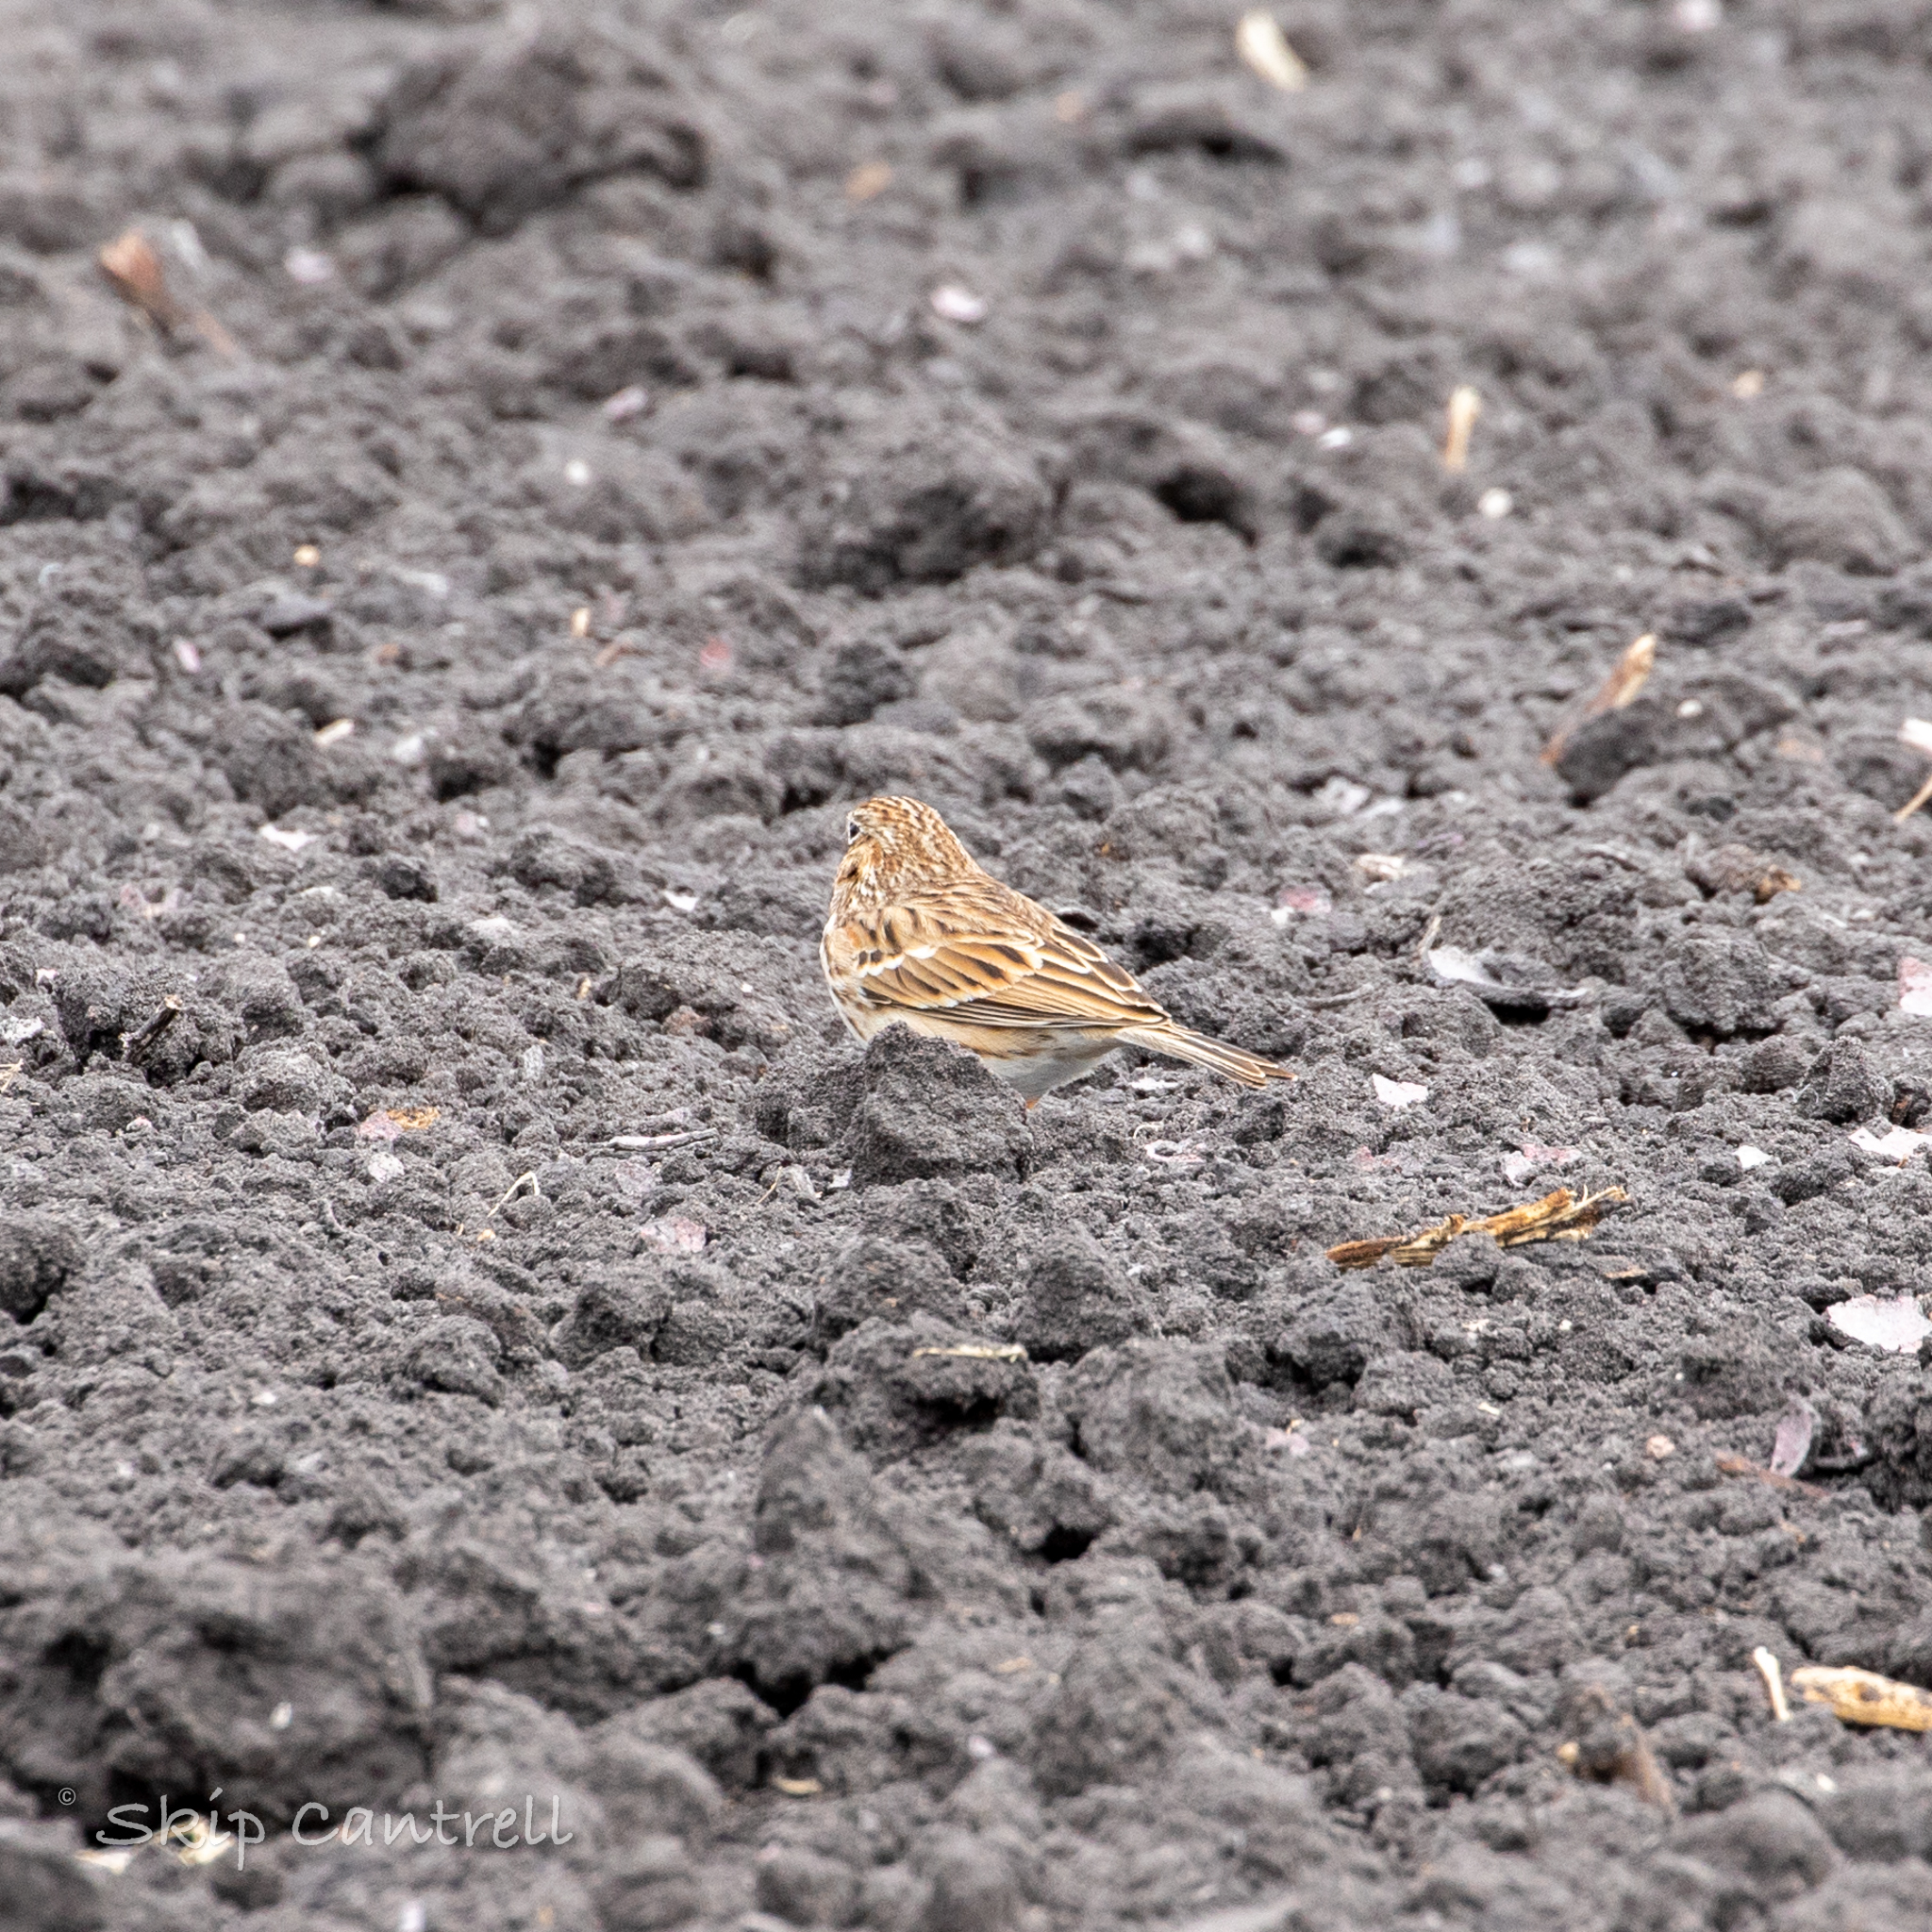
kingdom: Animalia
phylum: Chordata
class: Aves
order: Passeriformes
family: Passerellidae
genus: Pooecetes
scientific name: Pooecetes gramineus
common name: Vesper sparrow
